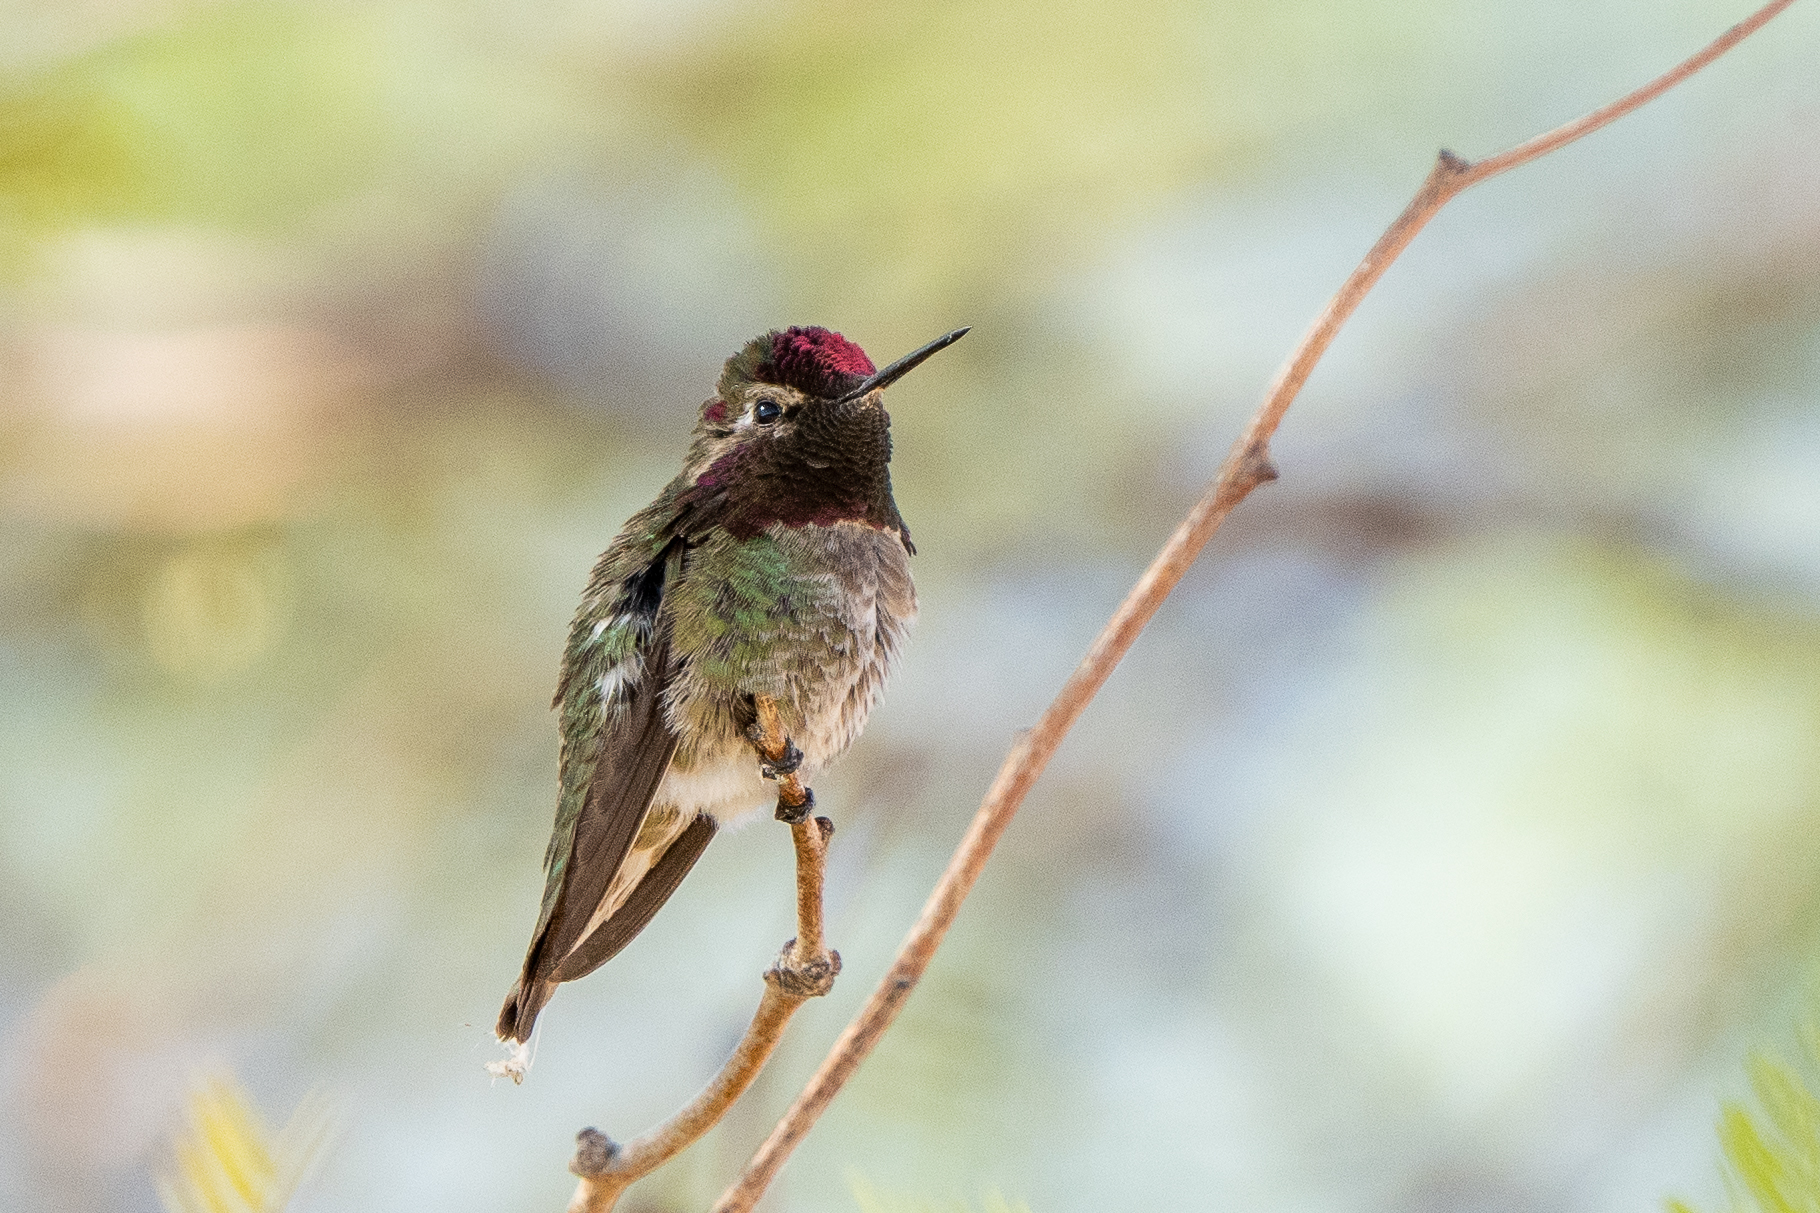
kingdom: Animalia
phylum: Chordata
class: Aves
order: Apodiformes
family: Trochilidae
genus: Calypte
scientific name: Calypte anna
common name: Anna's hummingbird
